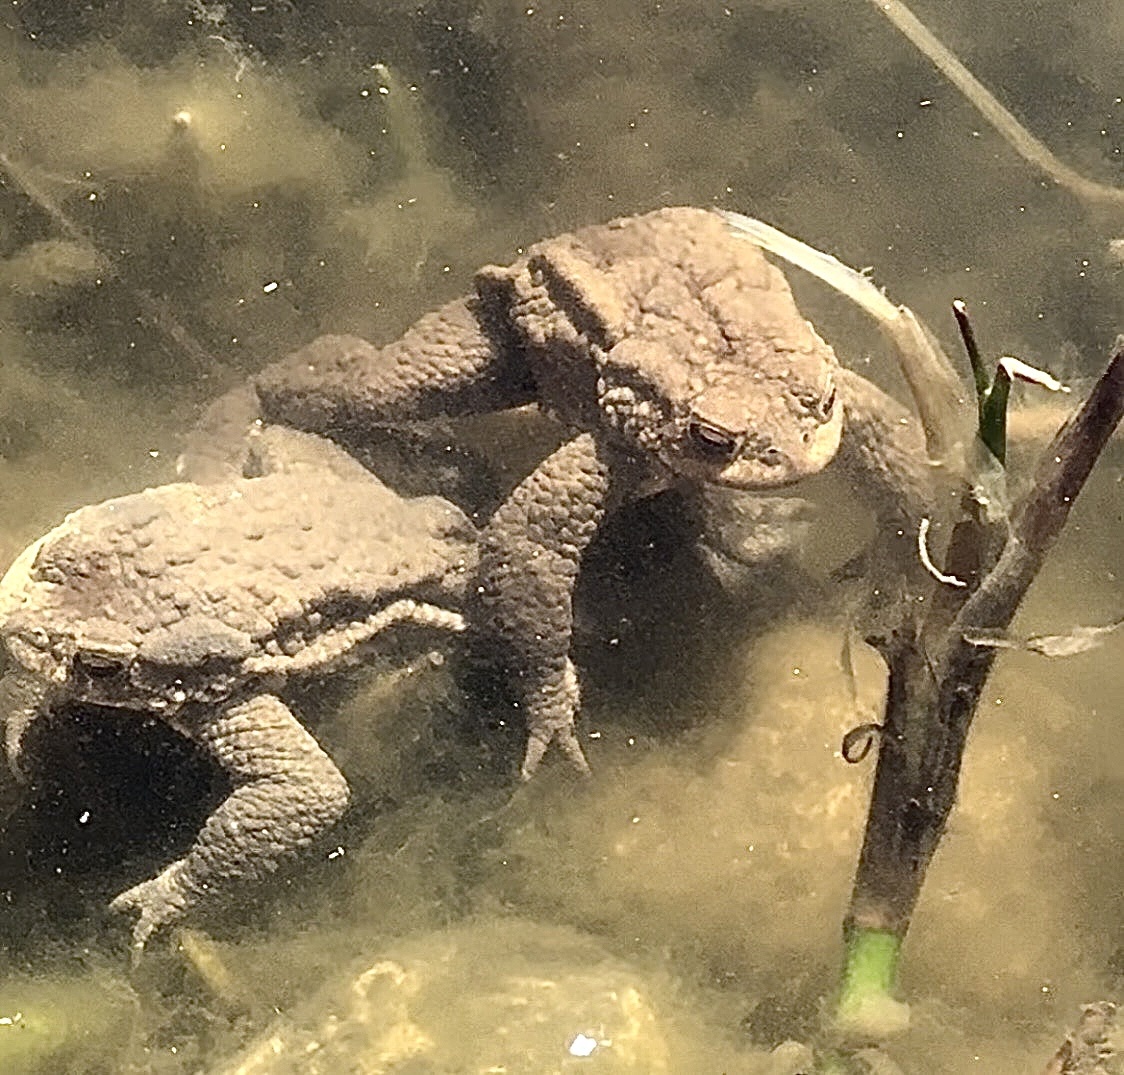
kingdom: Animalia
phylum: Chordata
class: Amphibia
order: Anura
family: Bufonidae
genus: Bufo
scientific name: Bufo bufo
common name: Common toad
